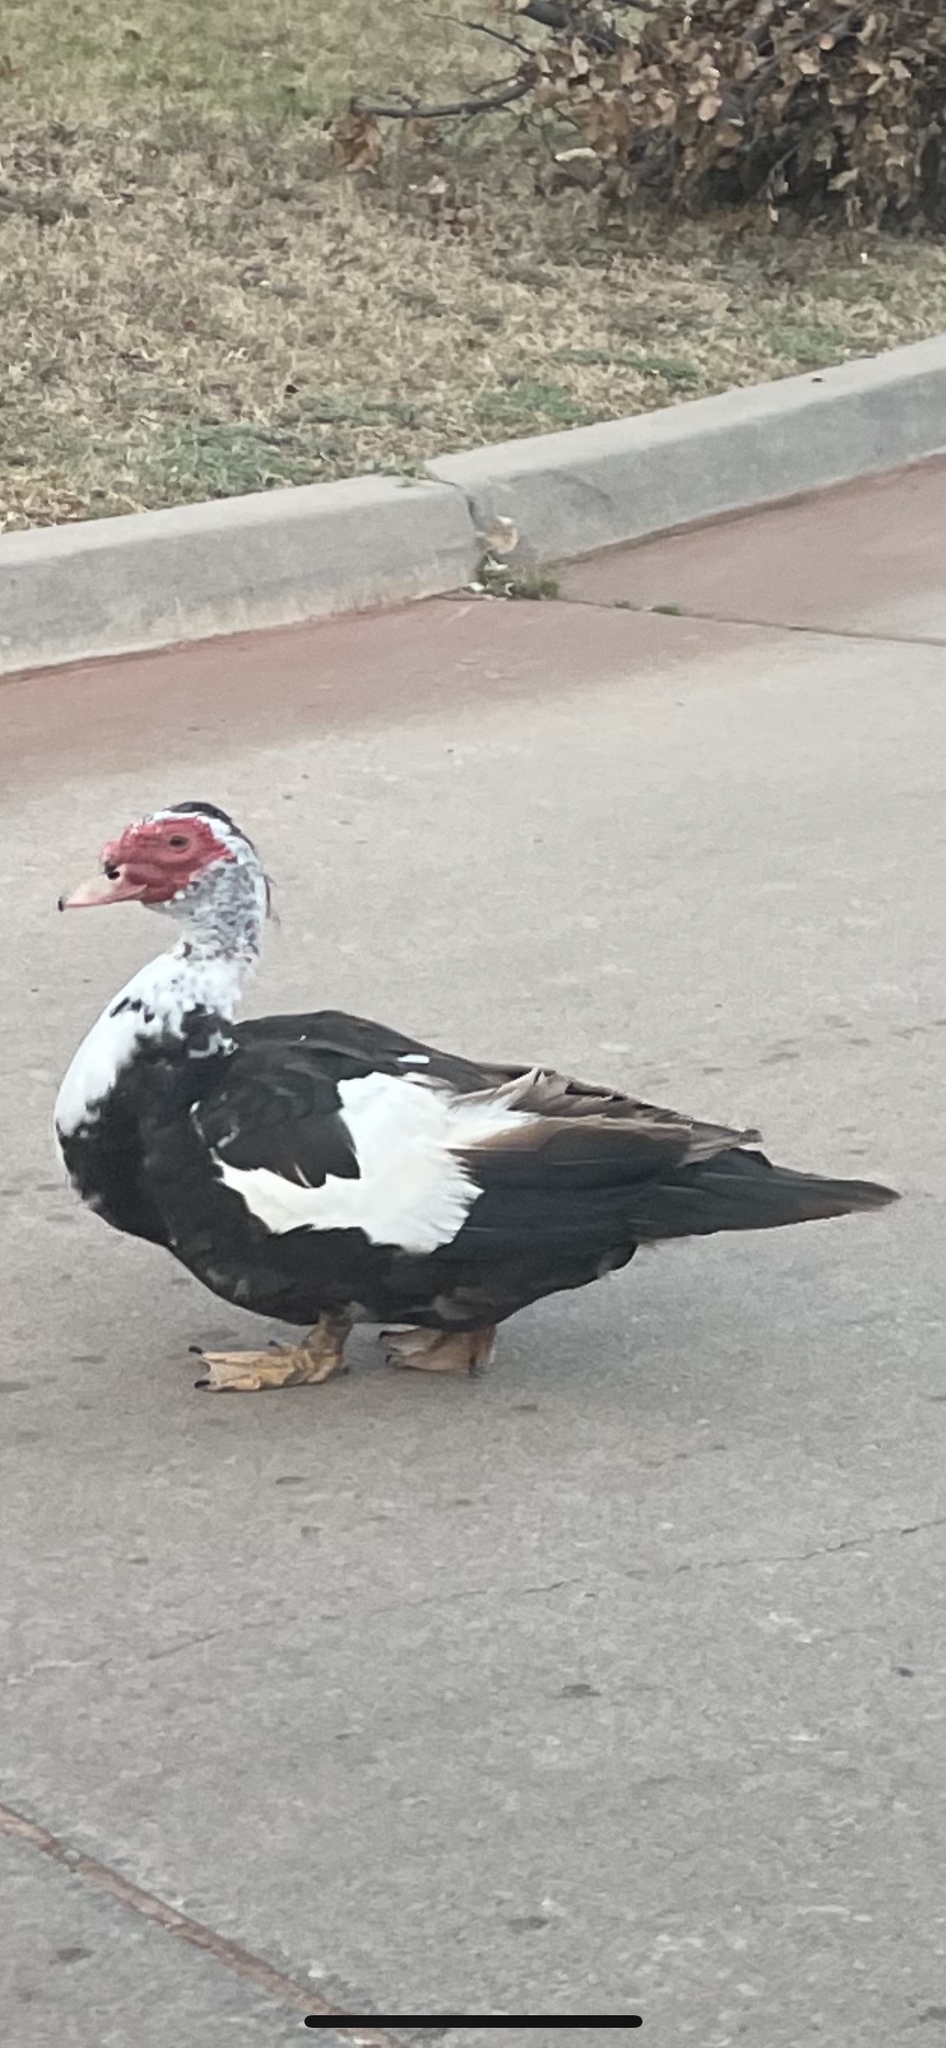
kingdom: Animalia
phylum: Chordata
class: Aves
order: Anseriformes
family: Anatidae
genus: Cairina
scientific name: Cairina moschata
